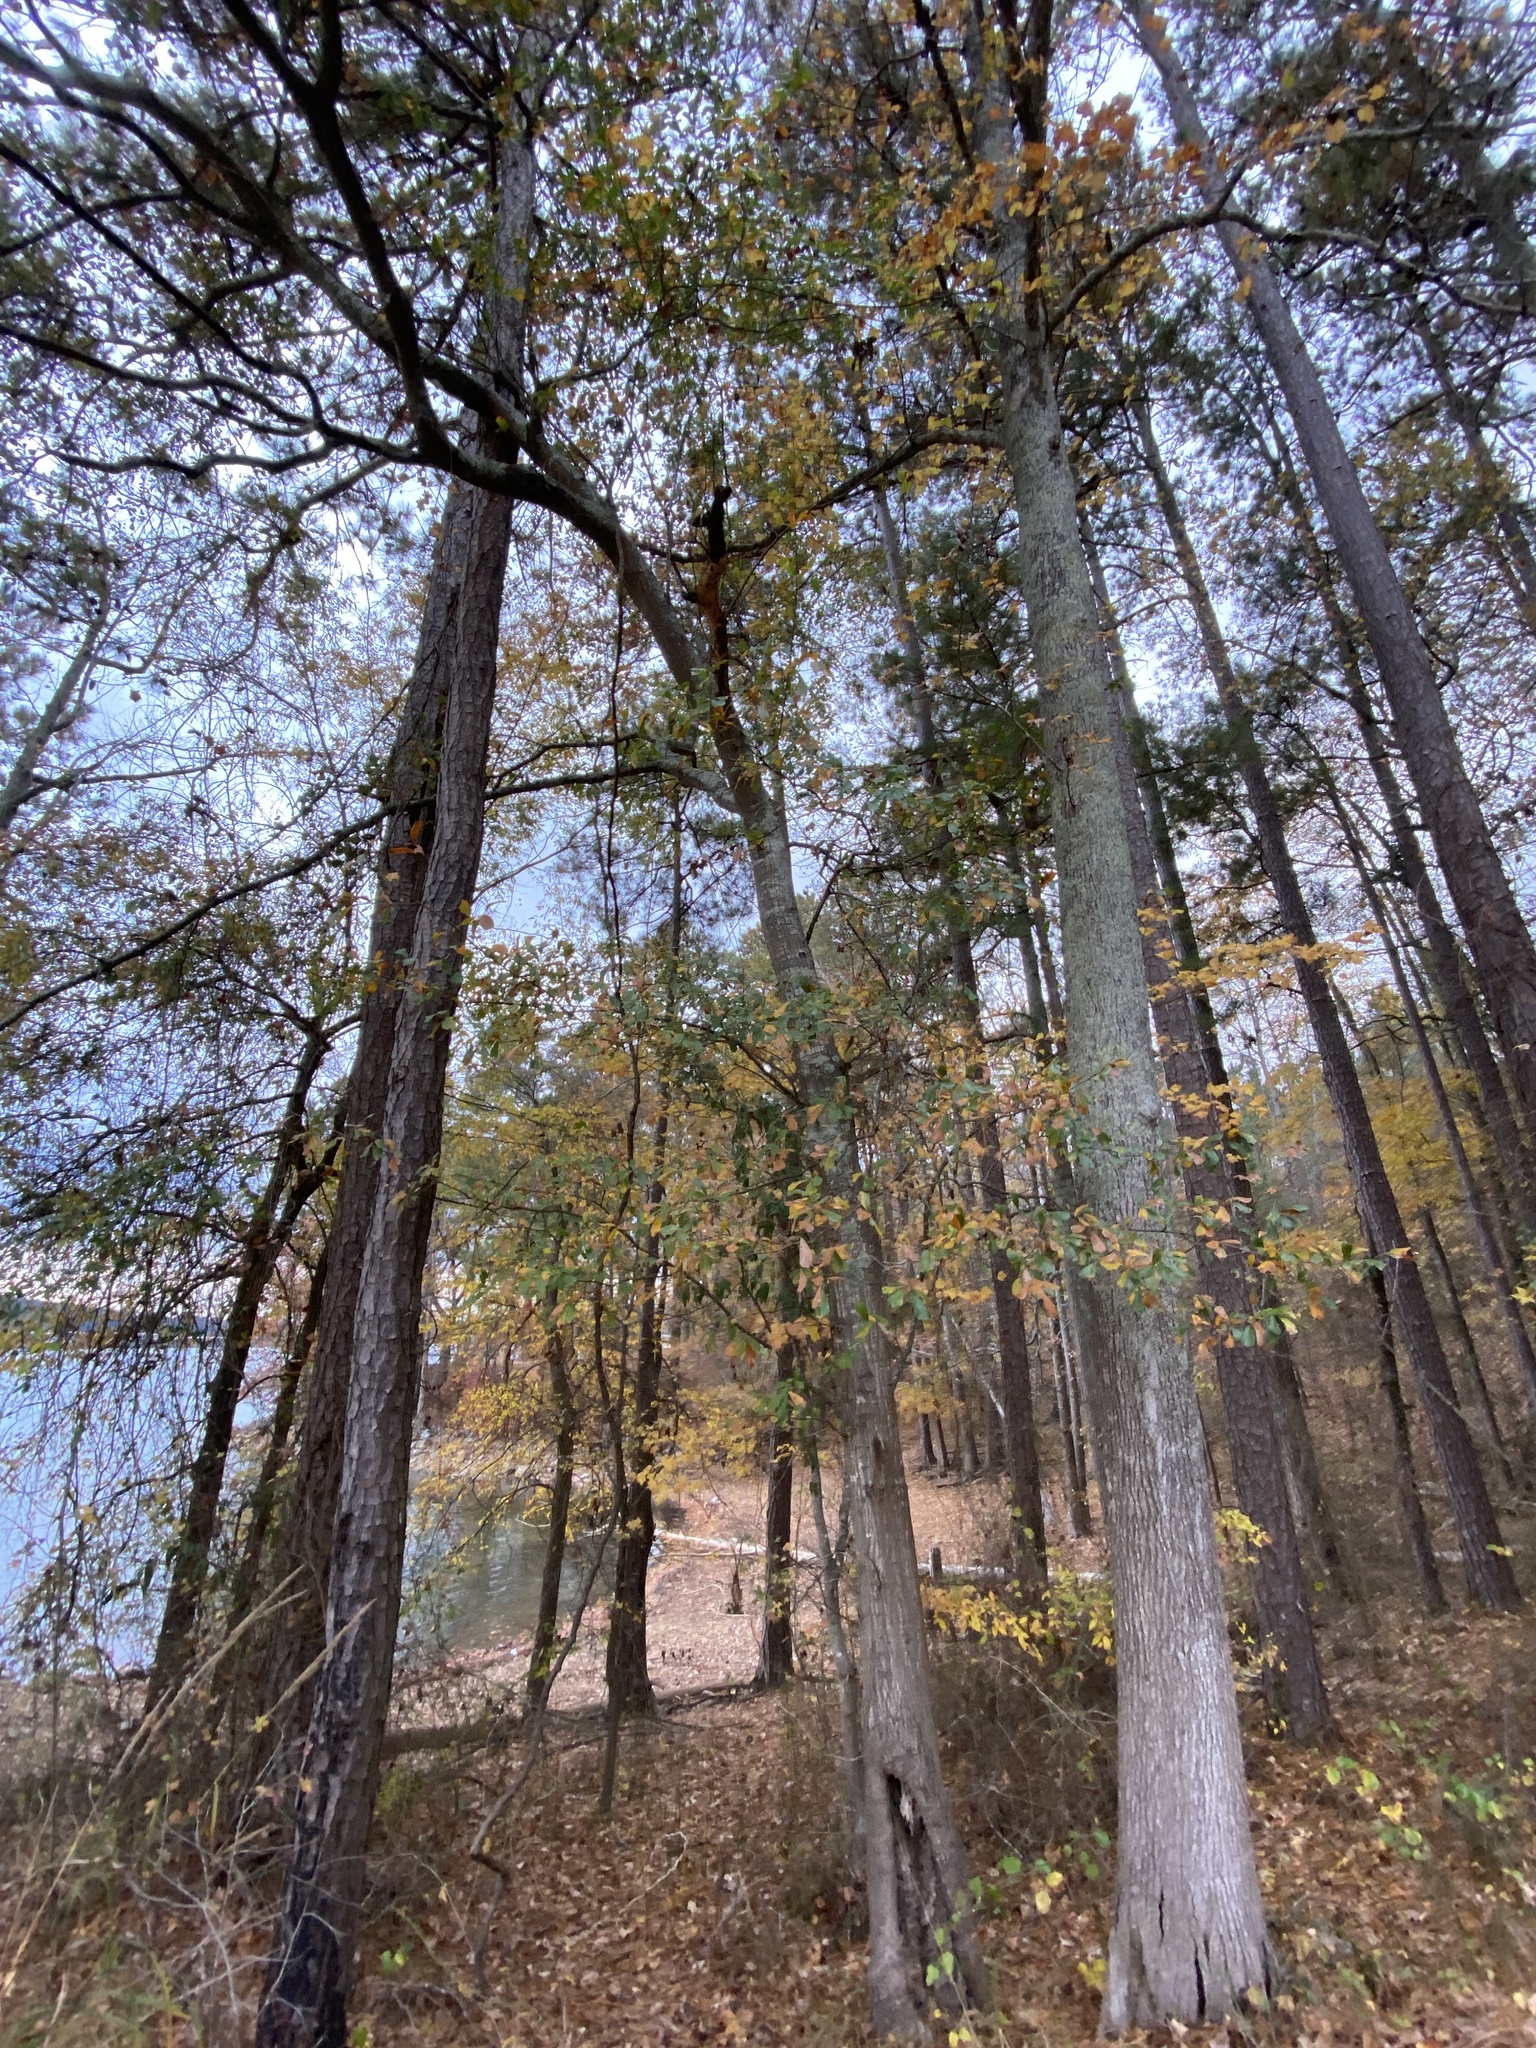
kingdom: Plantae
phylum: Tracheophyta
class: Magnoliopsida
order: Fagales
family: Fagaceae
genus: Quercus
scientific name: Quercus nigra
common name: Water oak
